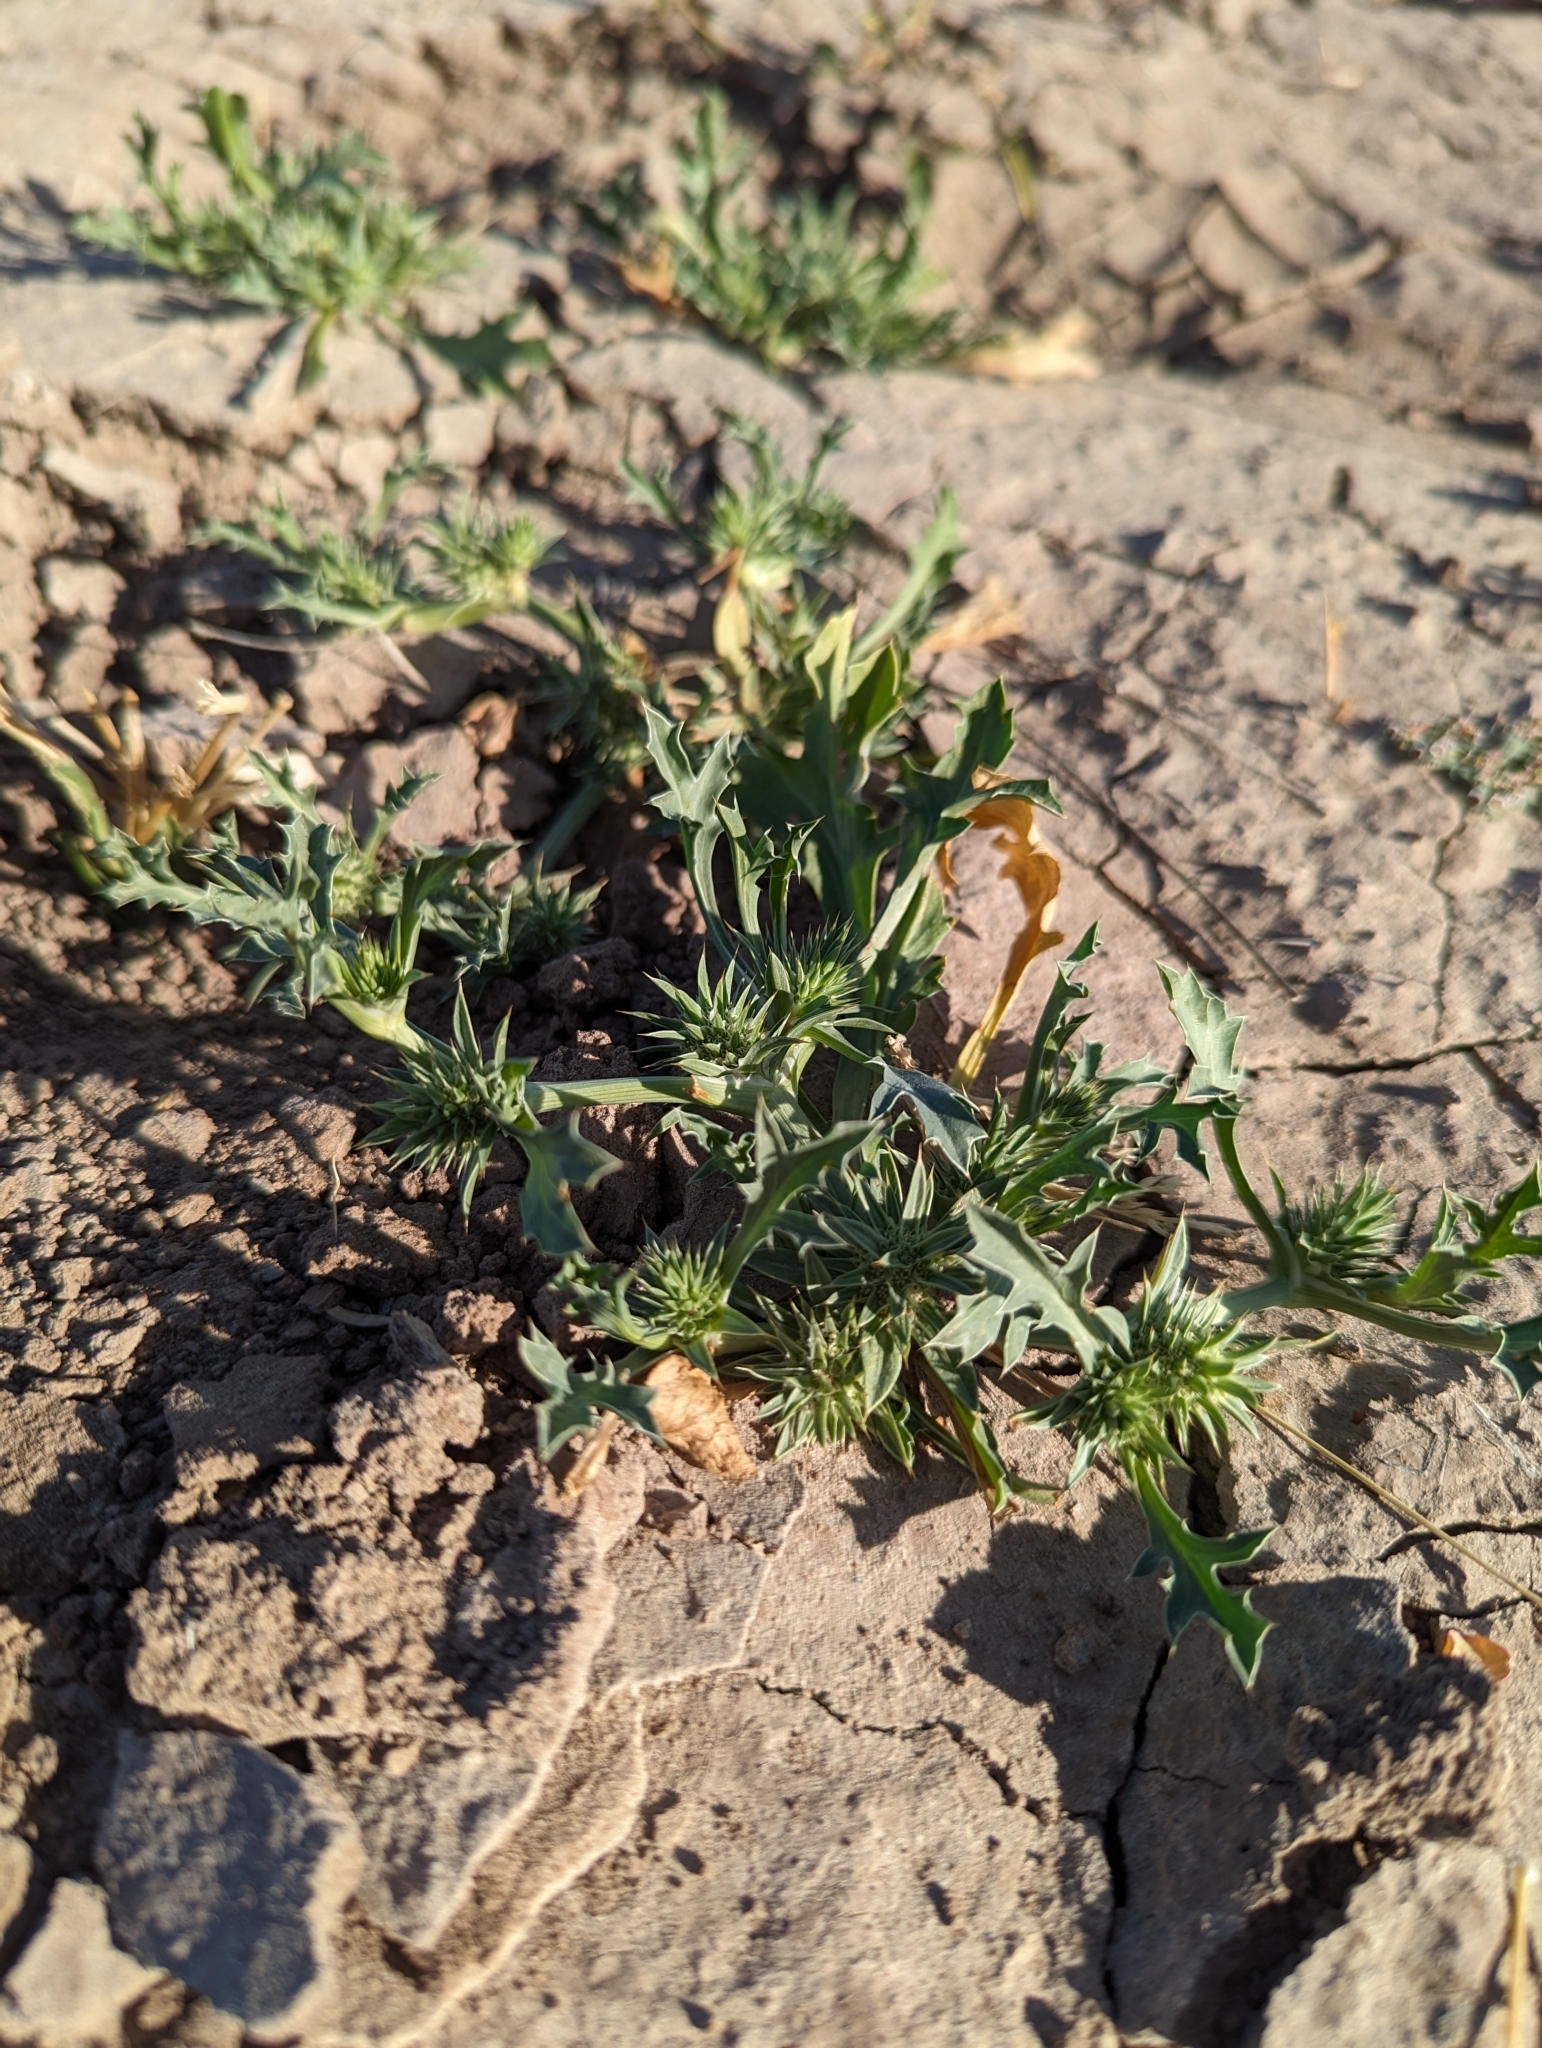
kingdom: Plantae
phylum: Tracheophyta
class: Magnoliopsida
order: Apiales
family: Apiaceae
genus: Eryngium
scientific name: Eryngium nasturtiifolium
